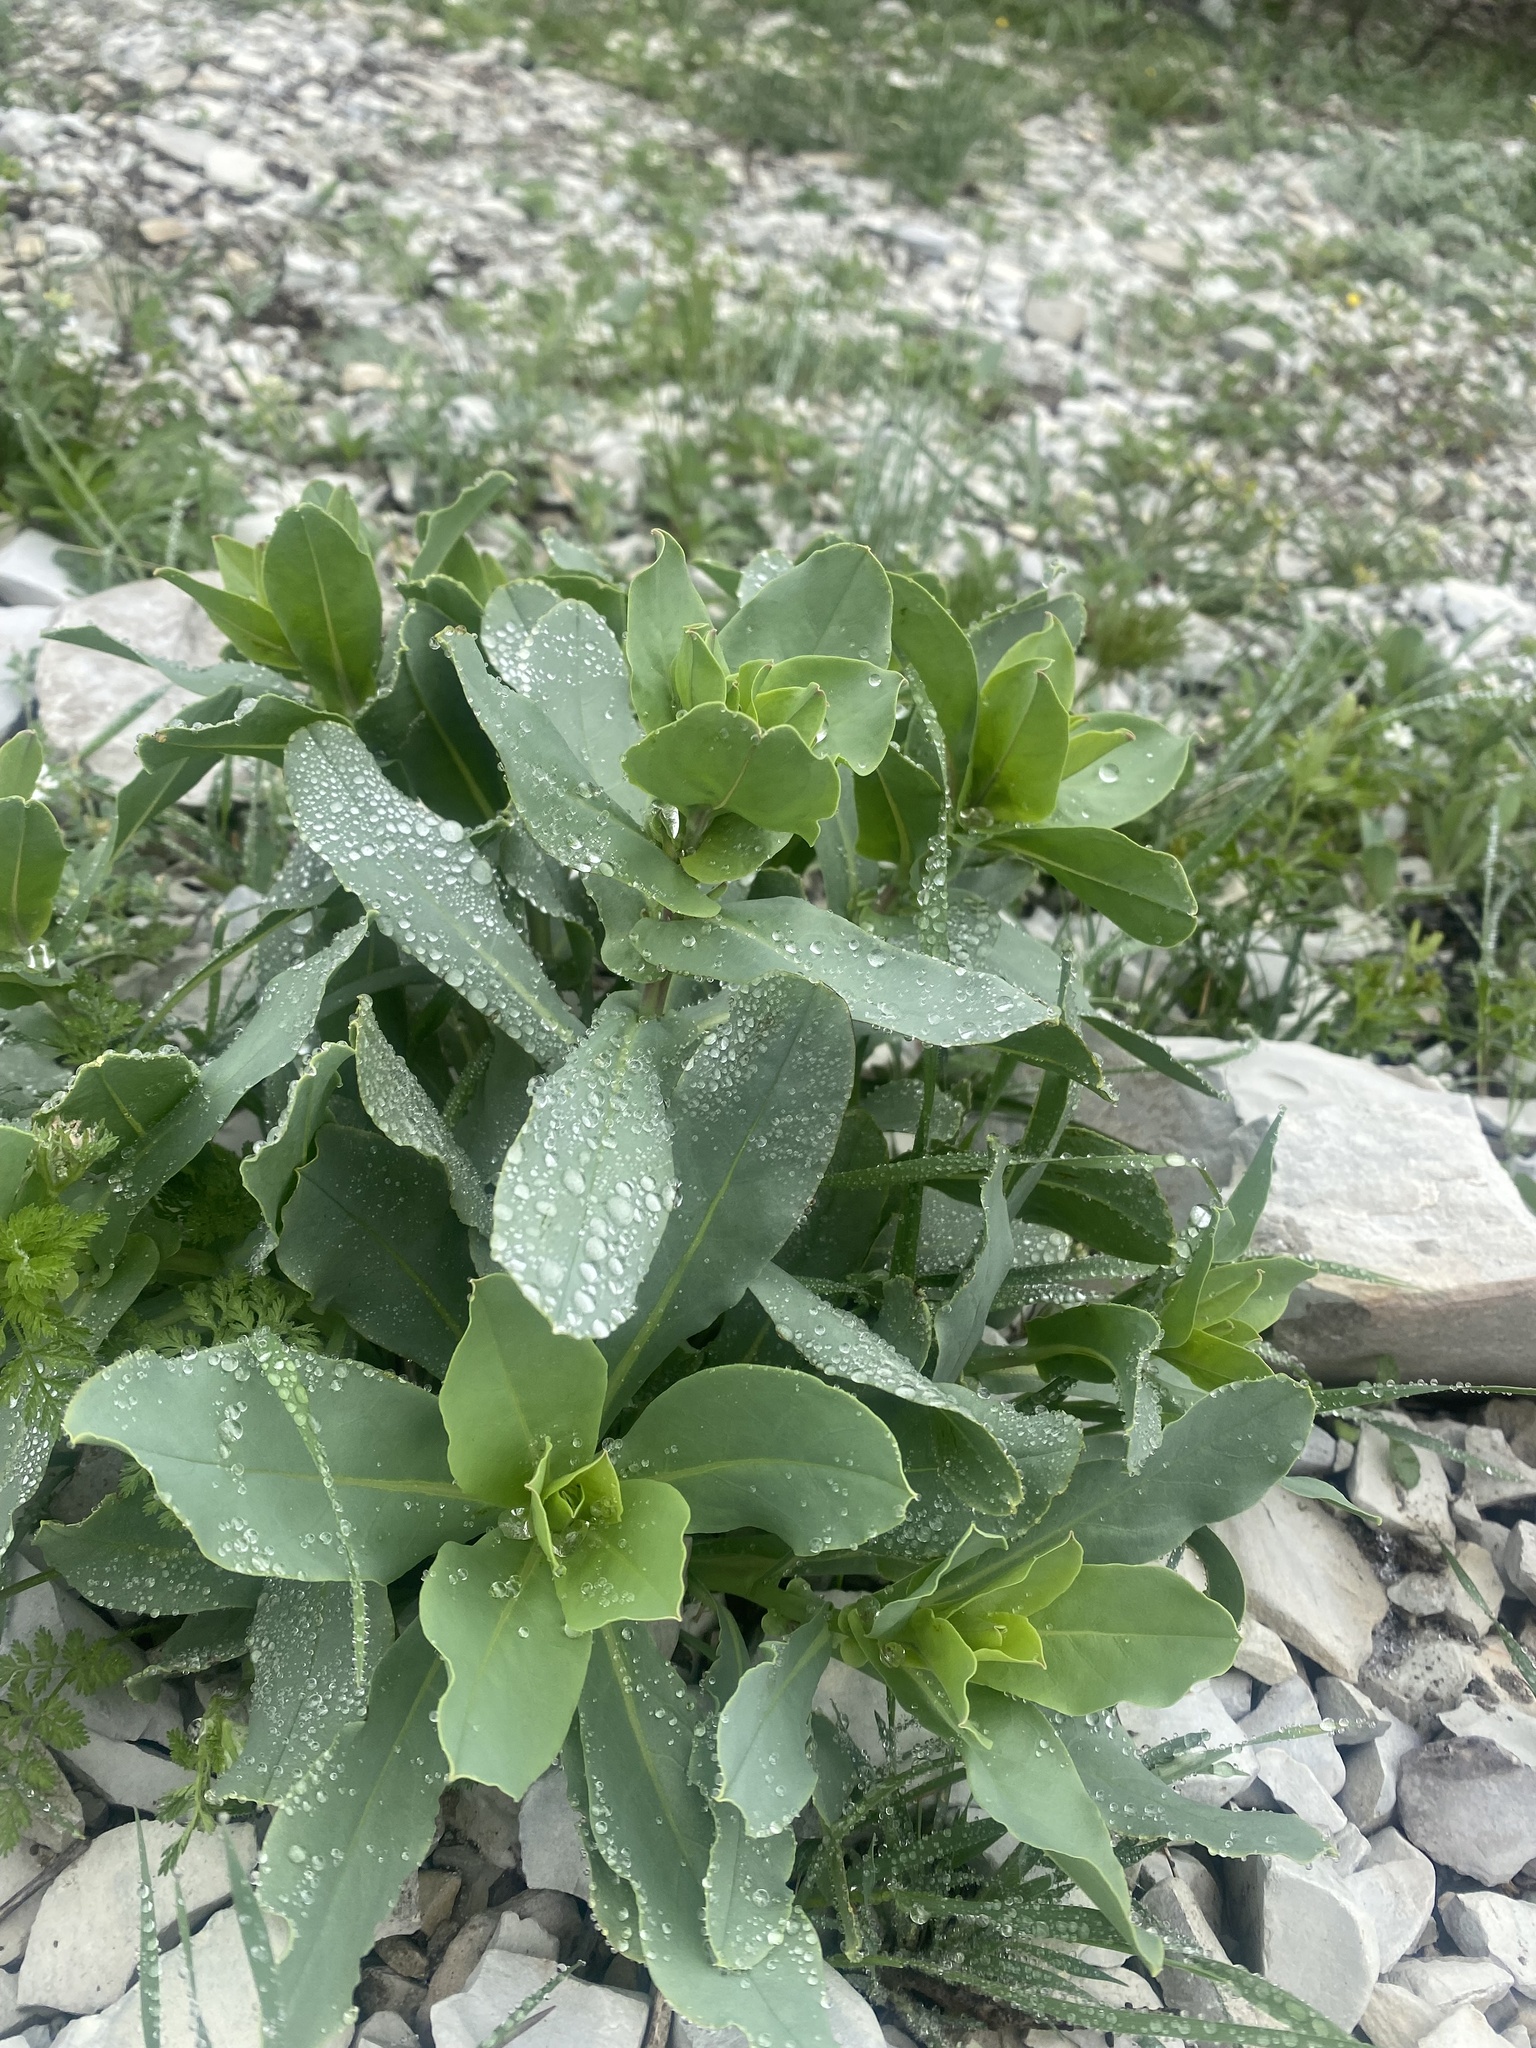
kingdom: Plantae
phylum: Tracheophyta
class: Magnoliopsida
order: Boraginales
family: Boraginaceae
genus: Cerinthe
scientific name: Cerinthe minor
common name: Lesser honeywort
